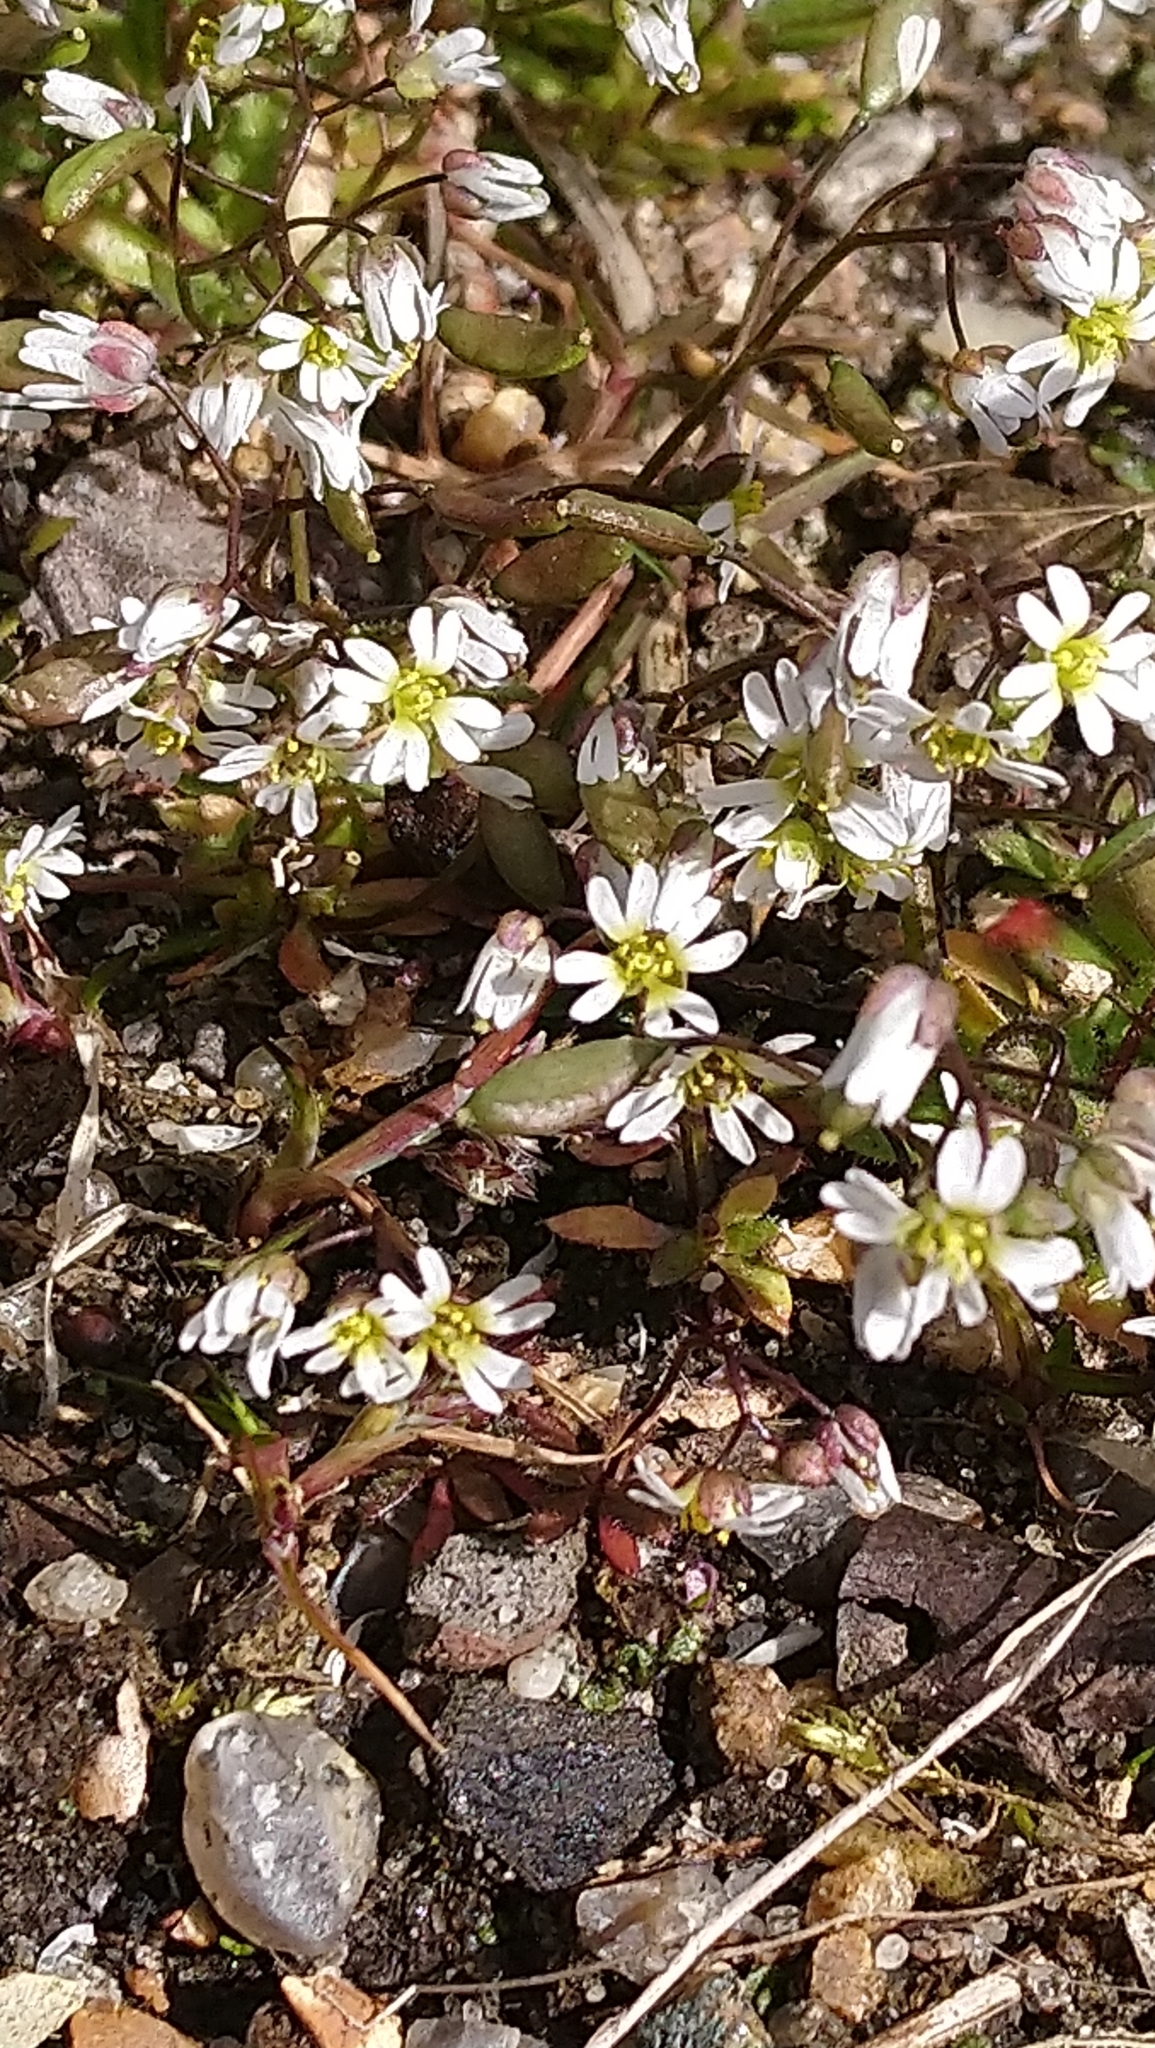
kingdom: Plantae
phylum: Tracheophyta
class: Magnoliopsida
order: Brassicales
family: Brassicaceae
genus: Draba
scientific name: Draba verna
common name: Spring draba
